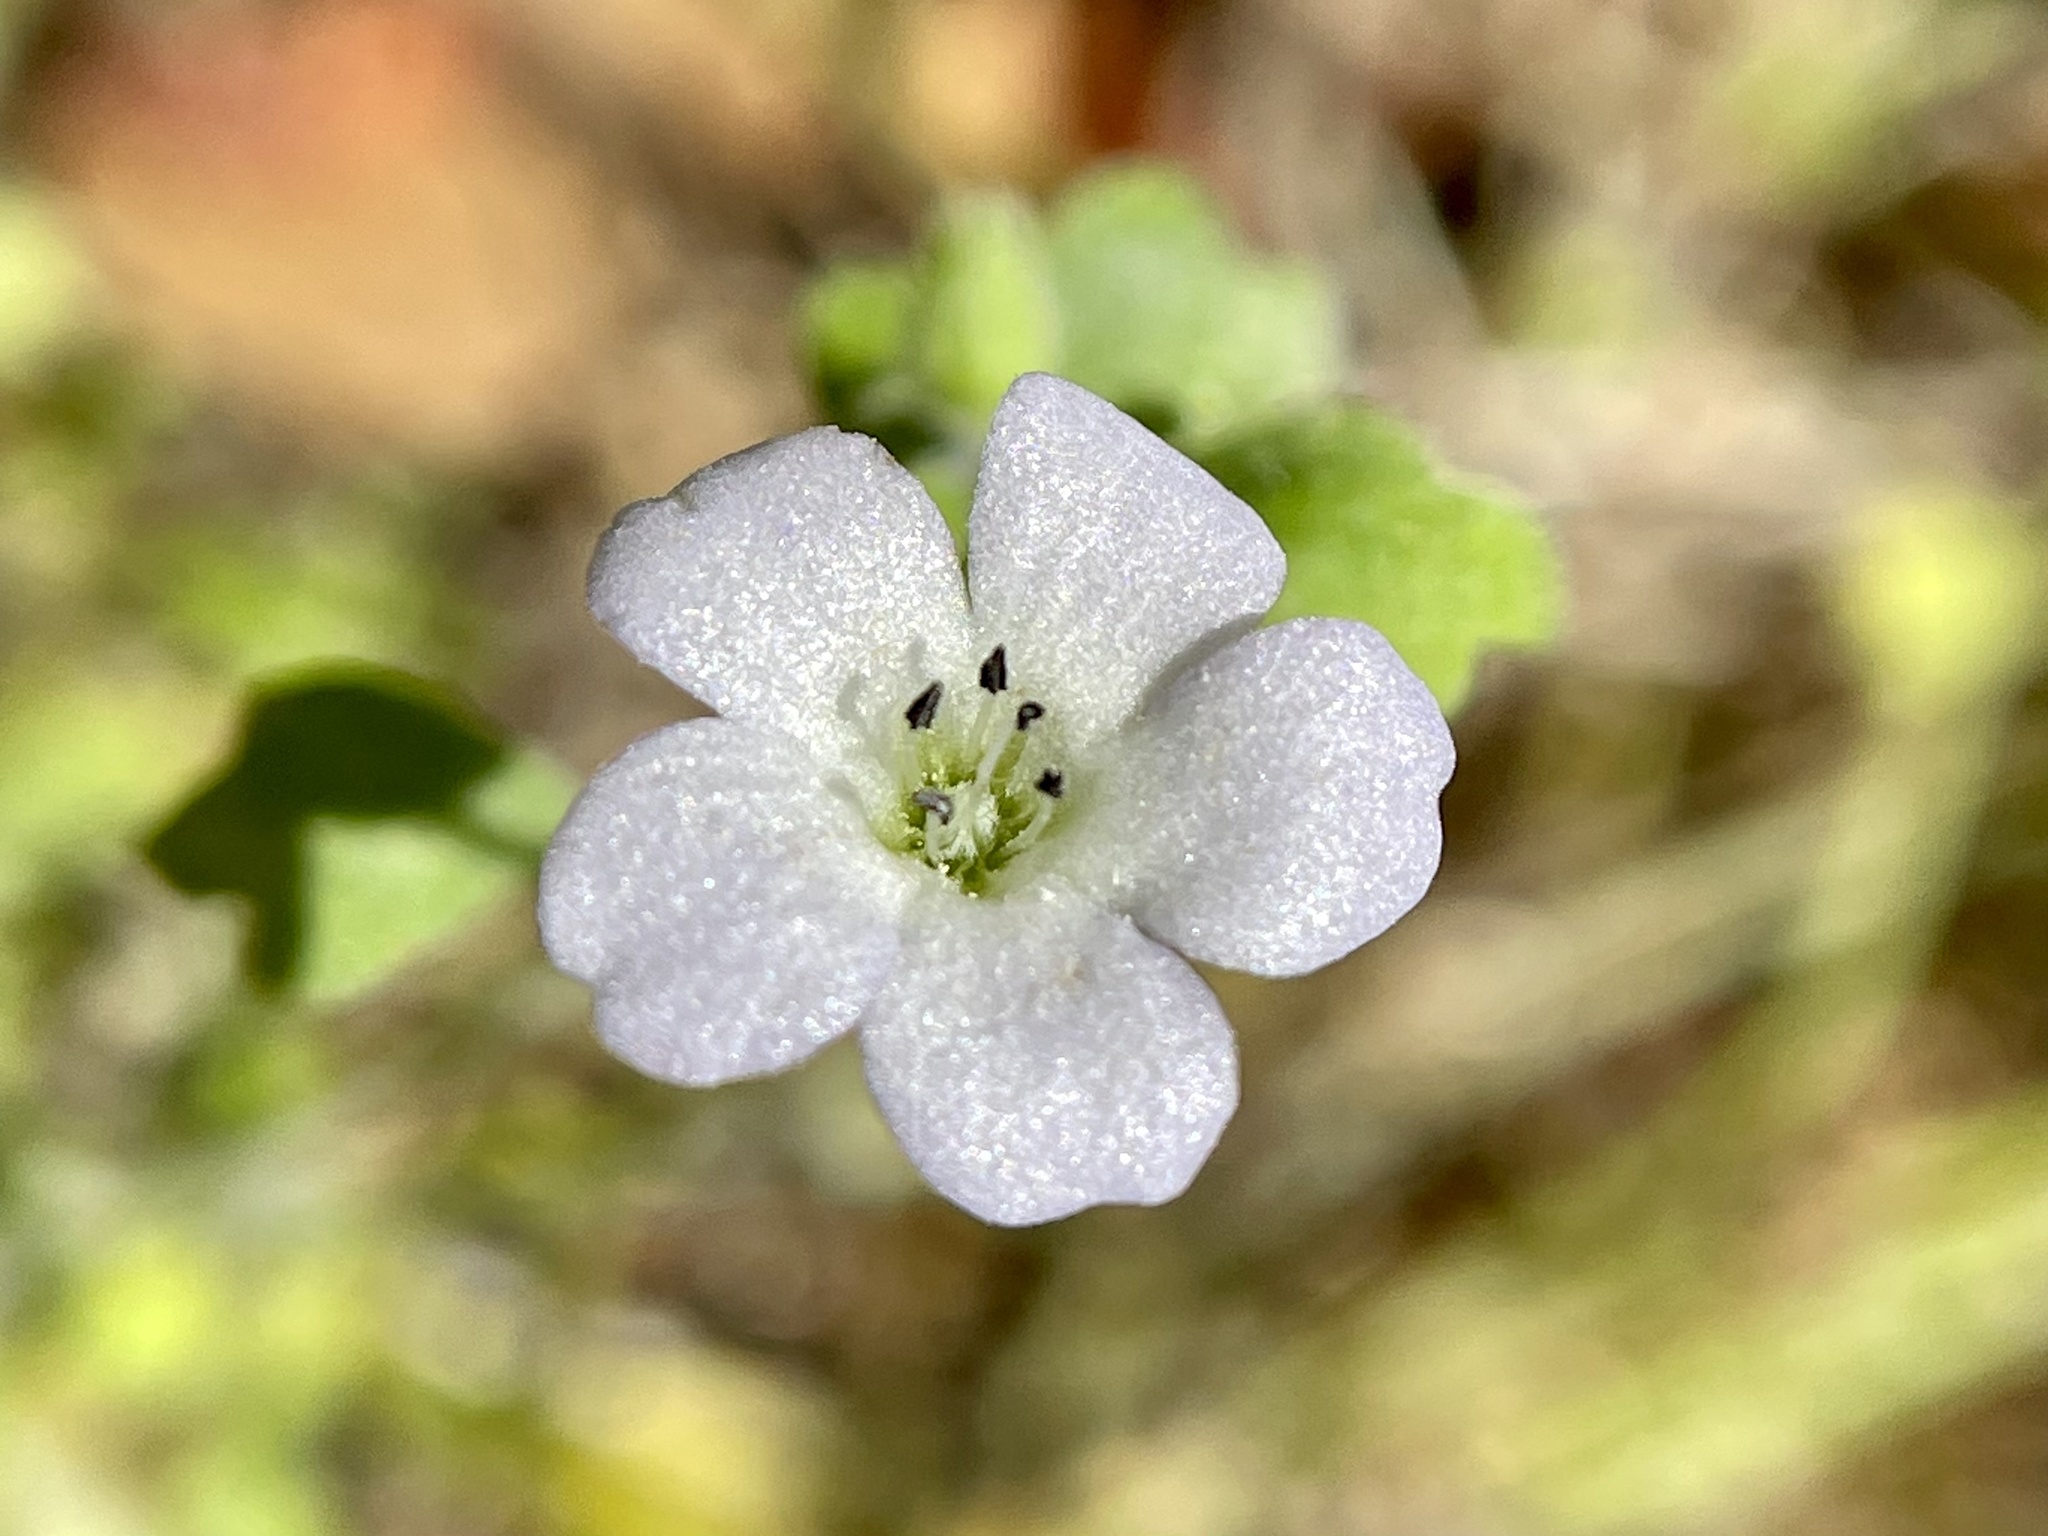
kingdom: Plantae
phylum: Tracheophyta
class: Magnoliopsida
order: Boraginales
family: Hydrophyllaceae
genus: Nemophila
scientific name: Nemophila heterophylla
